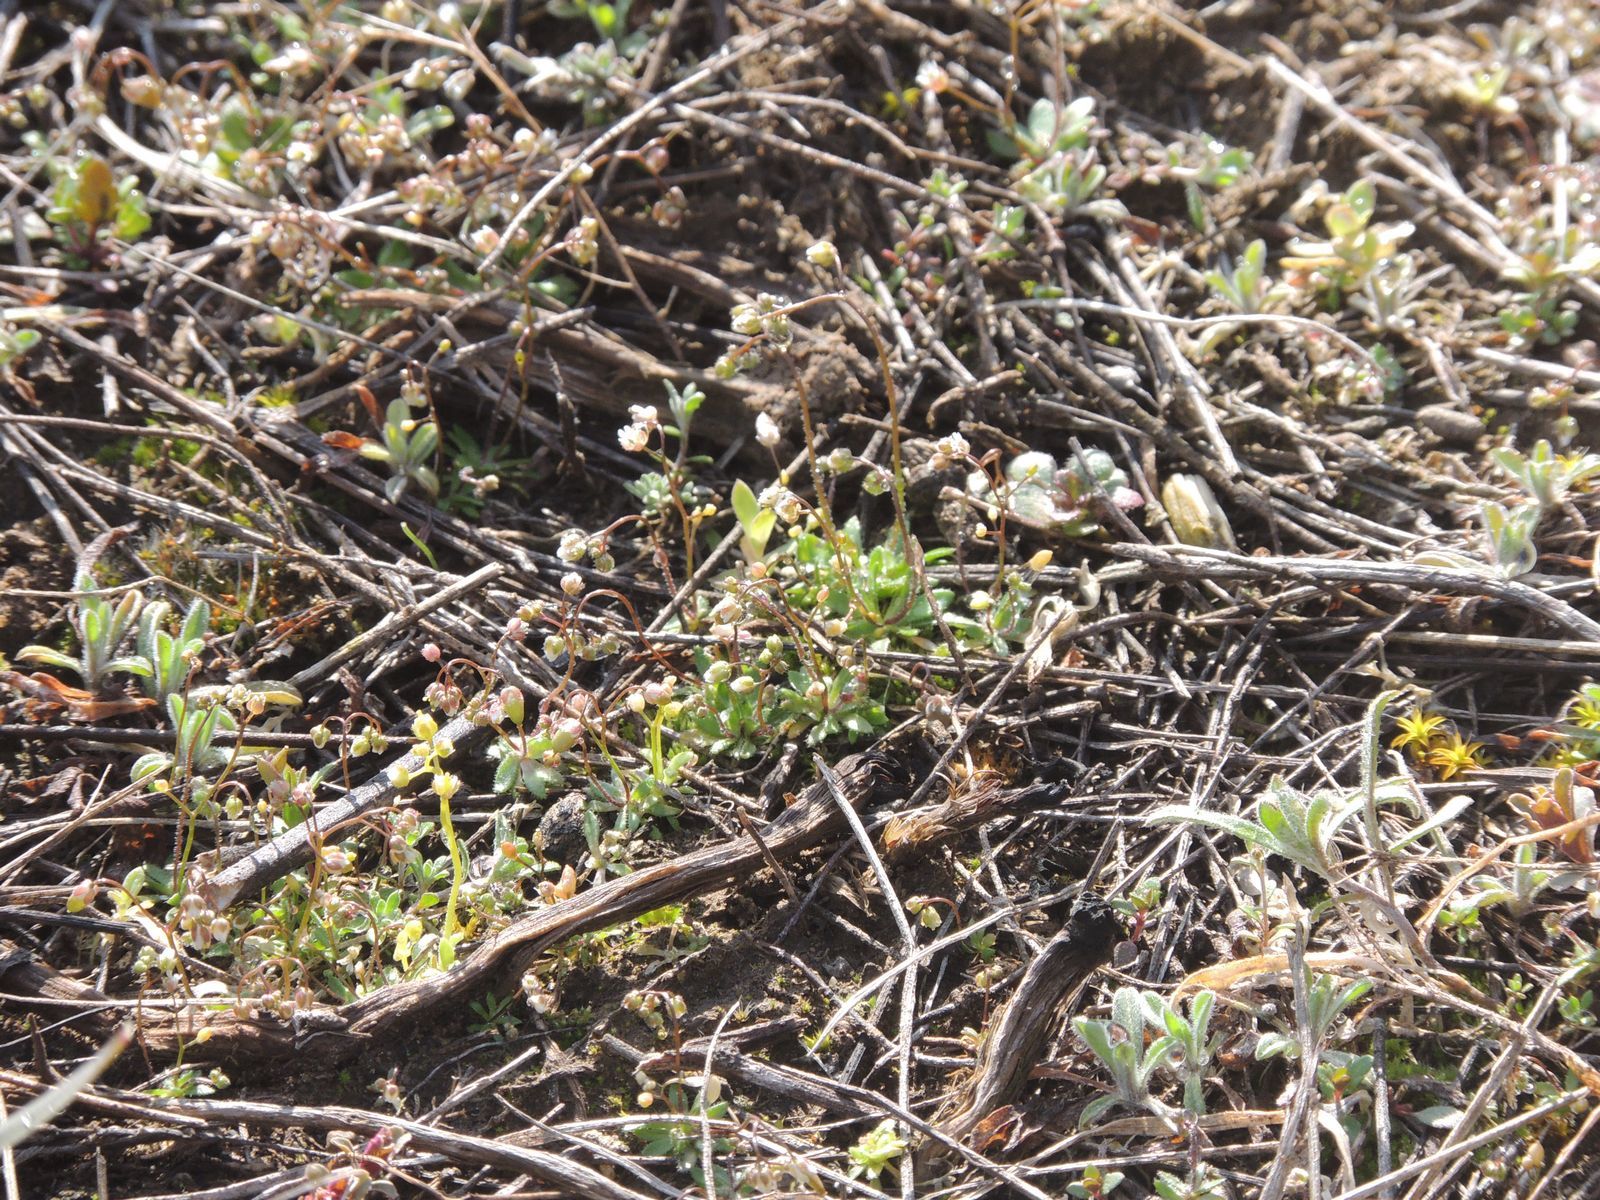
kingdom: Plantae
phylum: Tracheophyta
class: Magnoliopsida
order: Brassicales
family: Brassicaceae
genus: Draba
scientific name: Draba verna
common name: Spring draba
